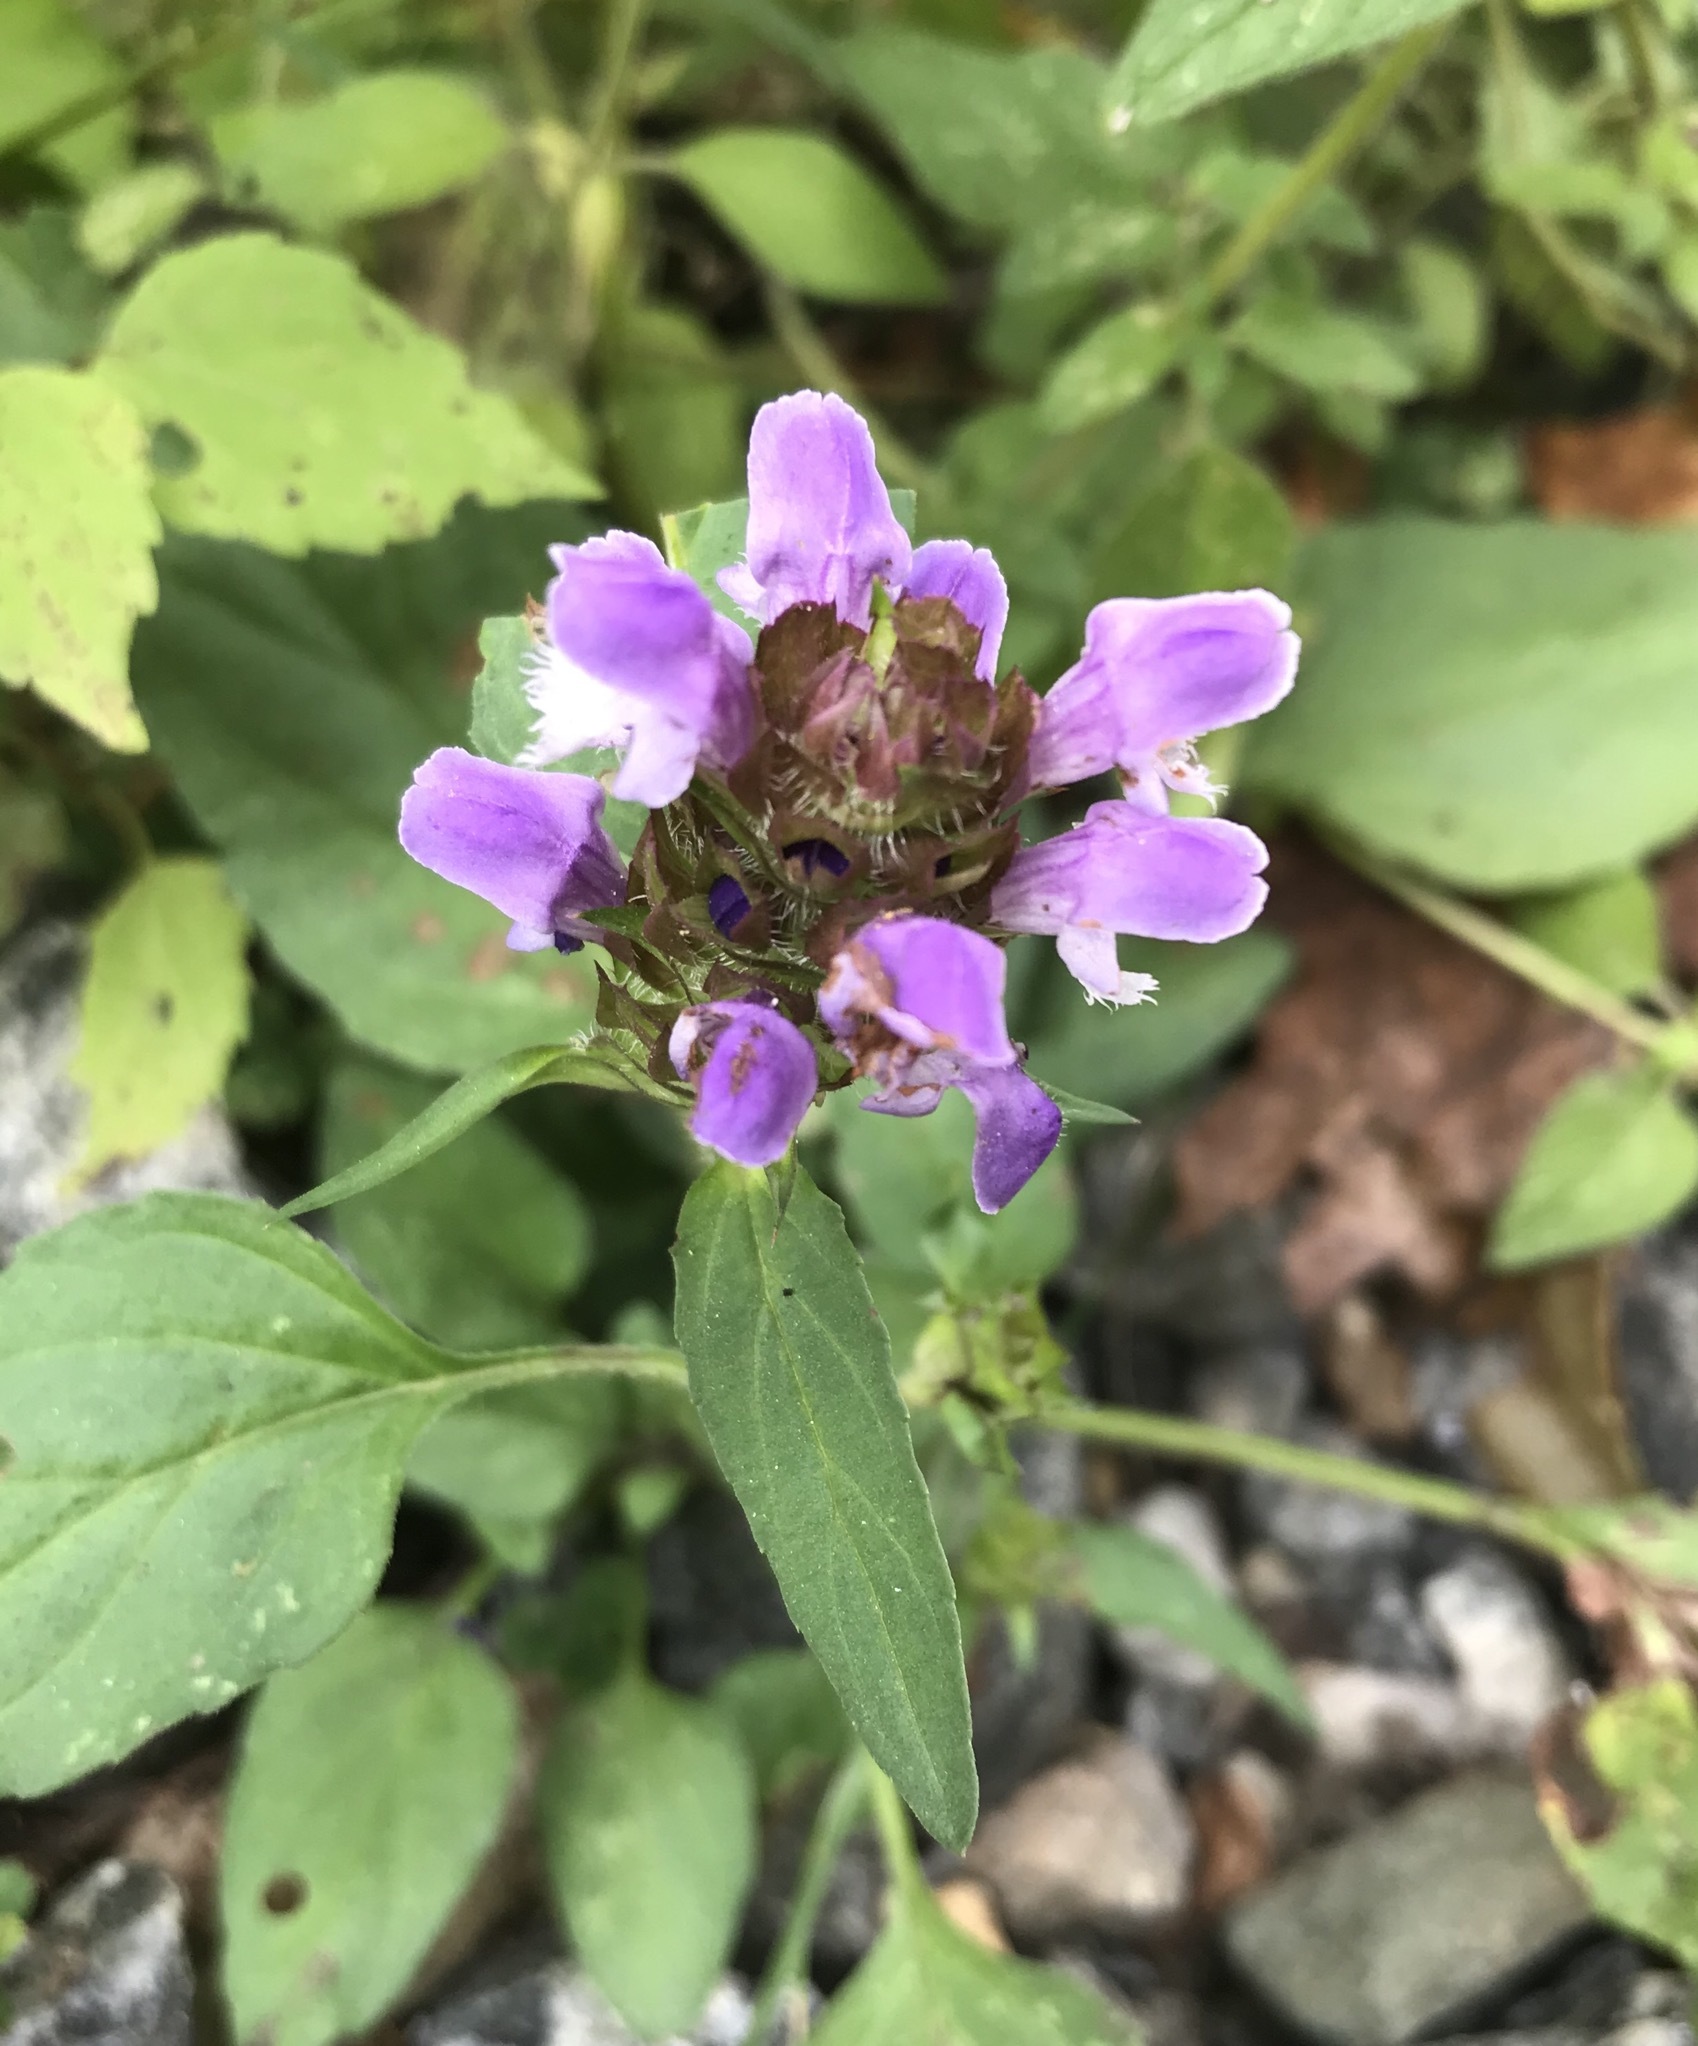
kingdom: Plantae
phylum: Tracheophyta
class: Magnoliopsida
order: Lamiales
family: Lamiaceae
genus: Prunella
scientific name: Prunella vulgaris
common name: Heal-all
